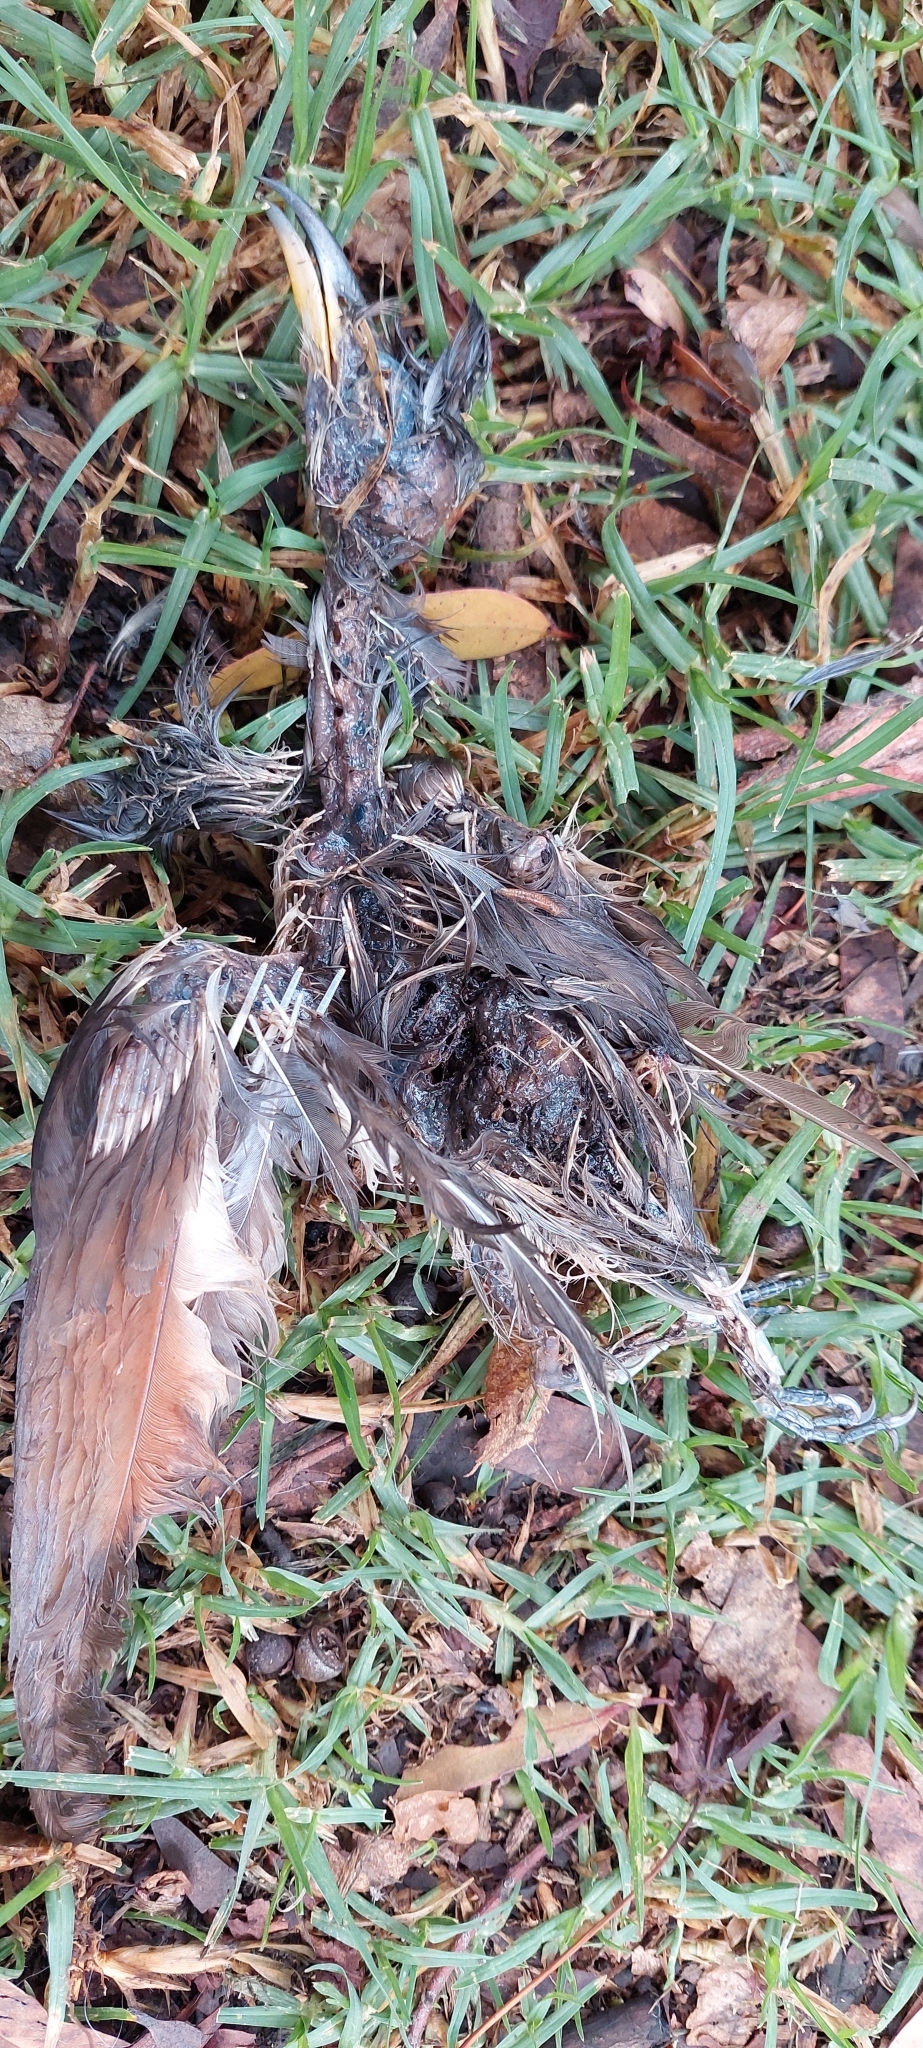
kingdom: Animalia
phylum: Chordata
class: Aves
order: Cuculiformes
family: Cuculidae
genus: Coccyzus
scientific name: Coccyzus americanus
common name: Yellow-billed cuckoo
